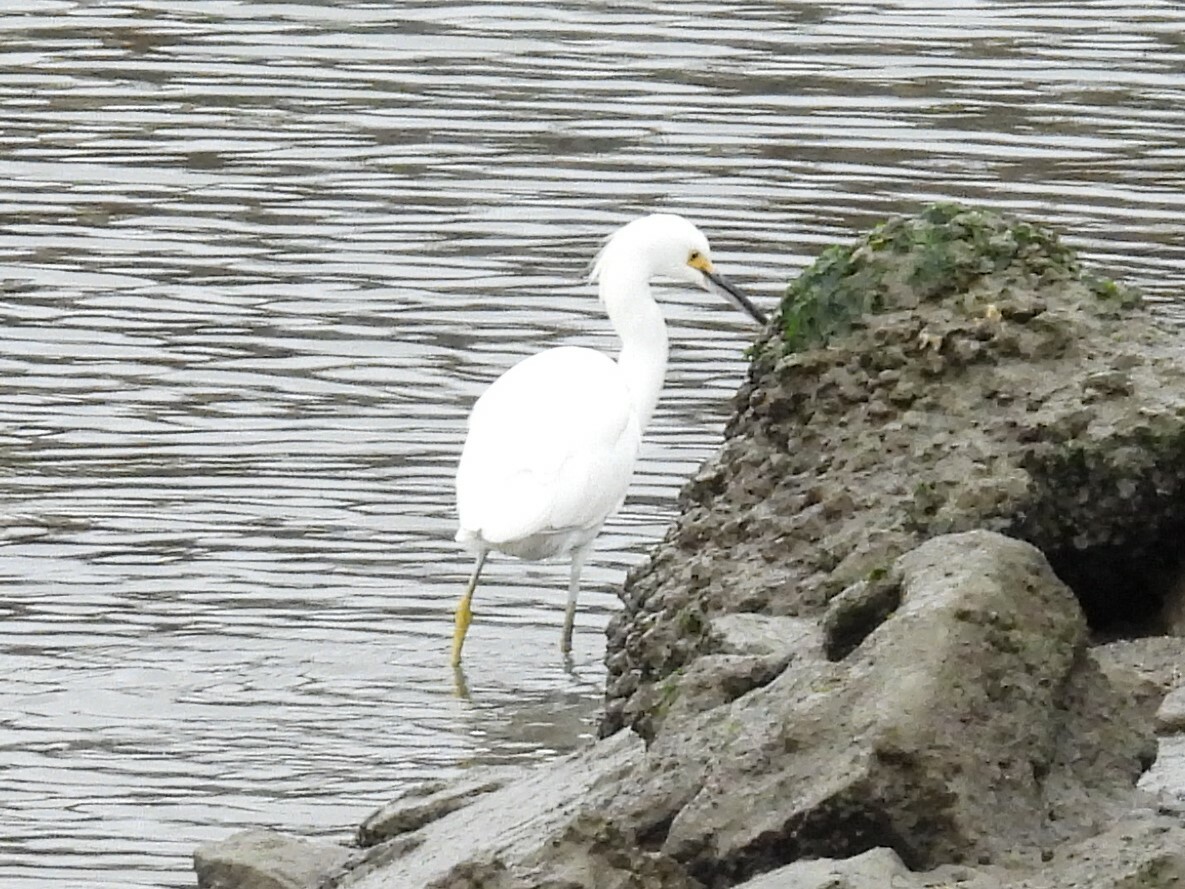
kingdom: Animalia
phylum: Chordata
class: Aves
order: Pelecaniformes
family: Ardeidae
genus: Egretta
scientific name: Egretta thula
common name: Snowy egret
